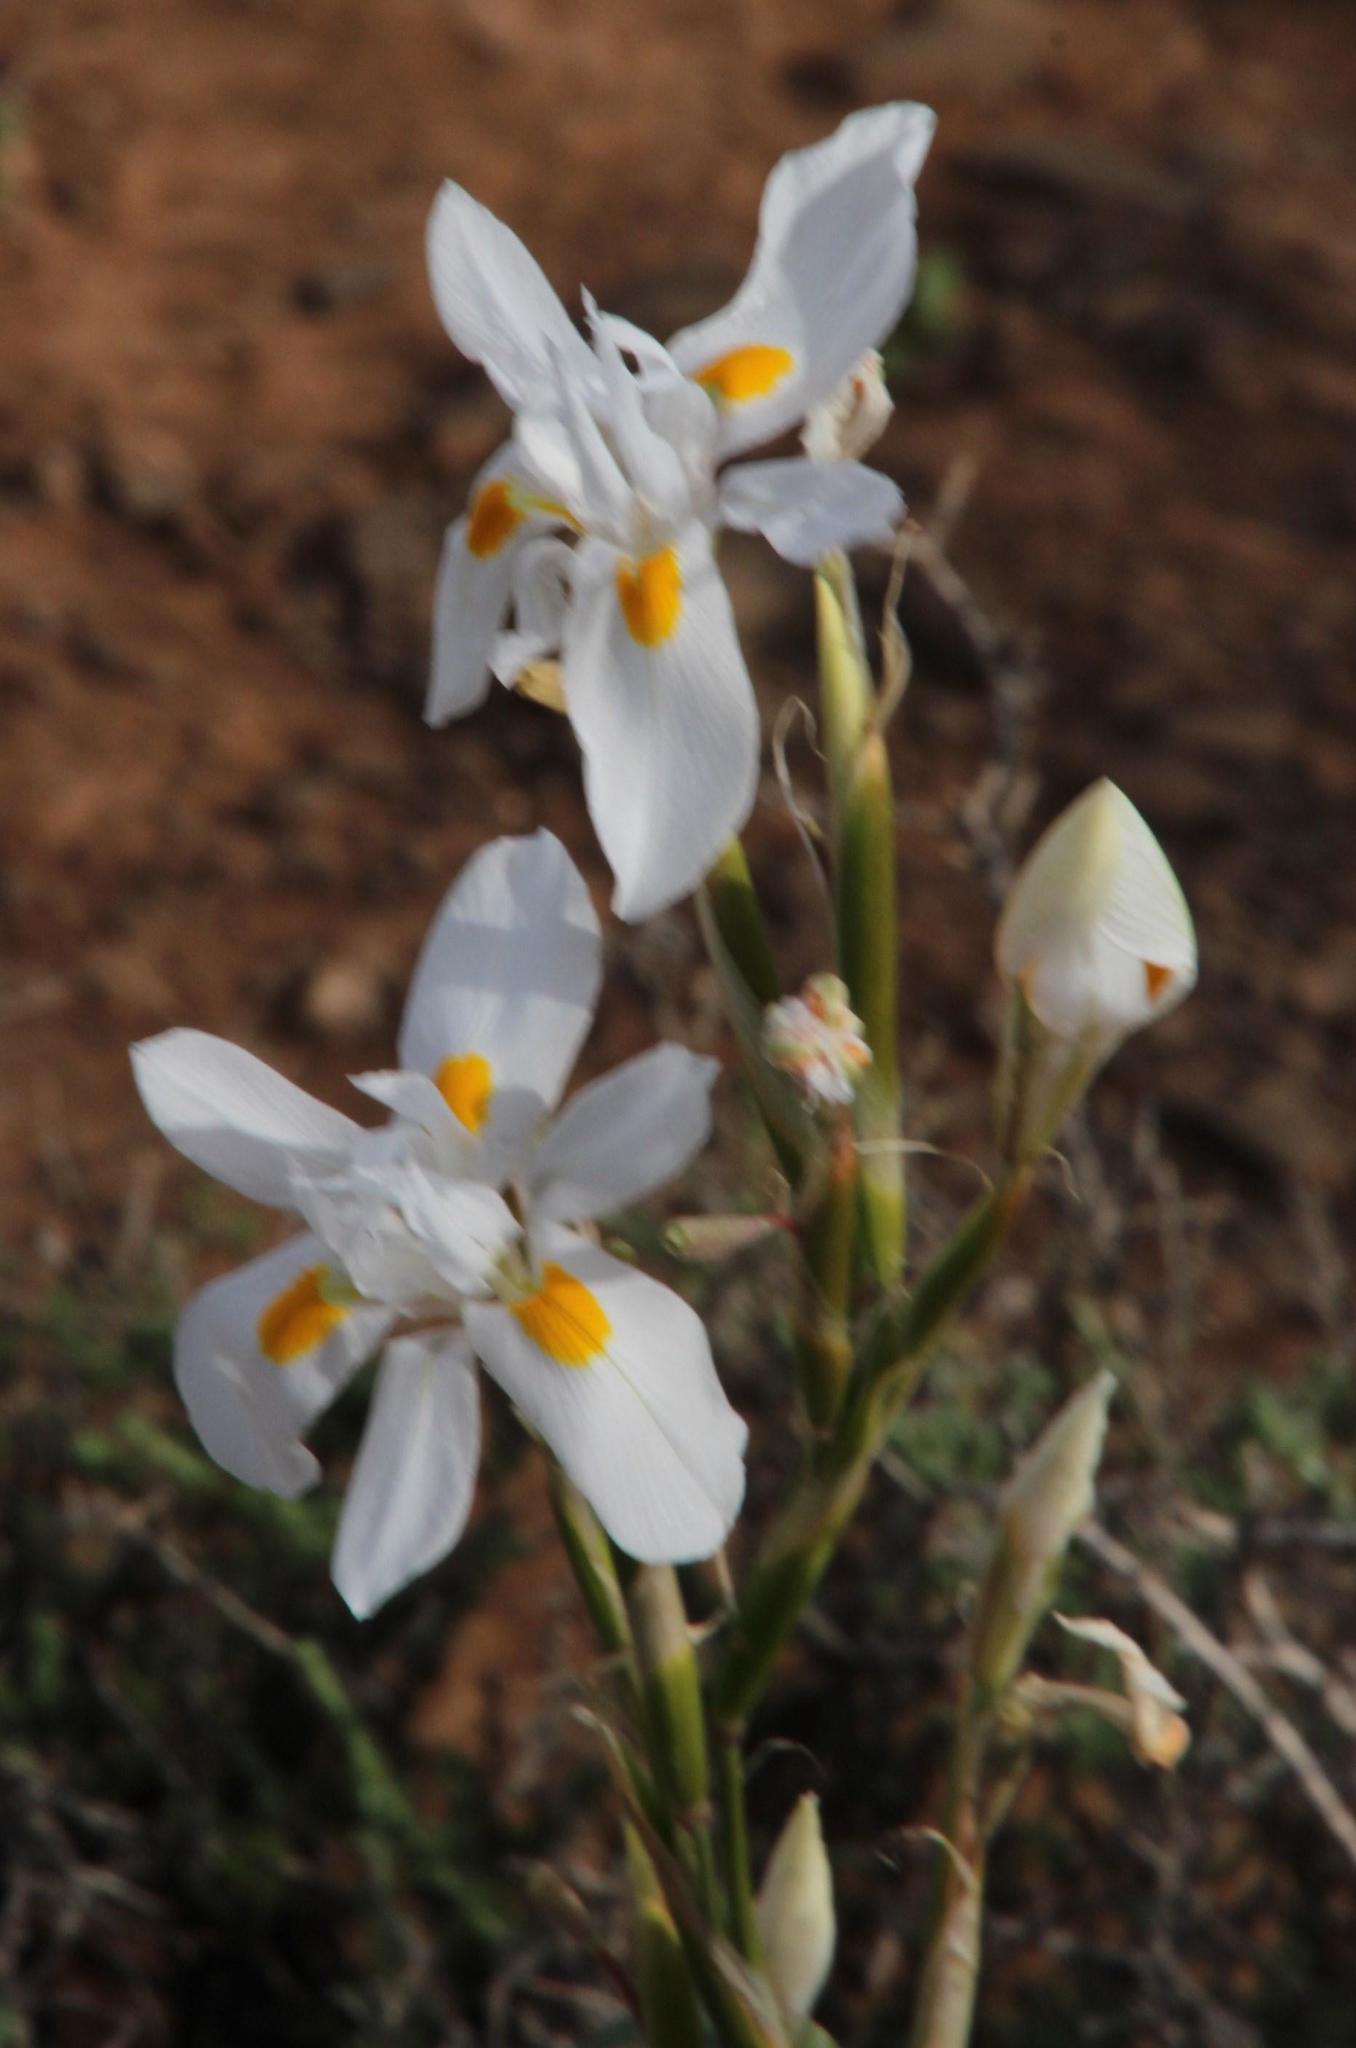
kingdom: Plantae
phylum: Tracheophyta
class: Liliopsida
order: Asparagales
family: Iridaceae
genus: Moraea
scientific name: Moraea polystachya
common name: Blue-tulip
